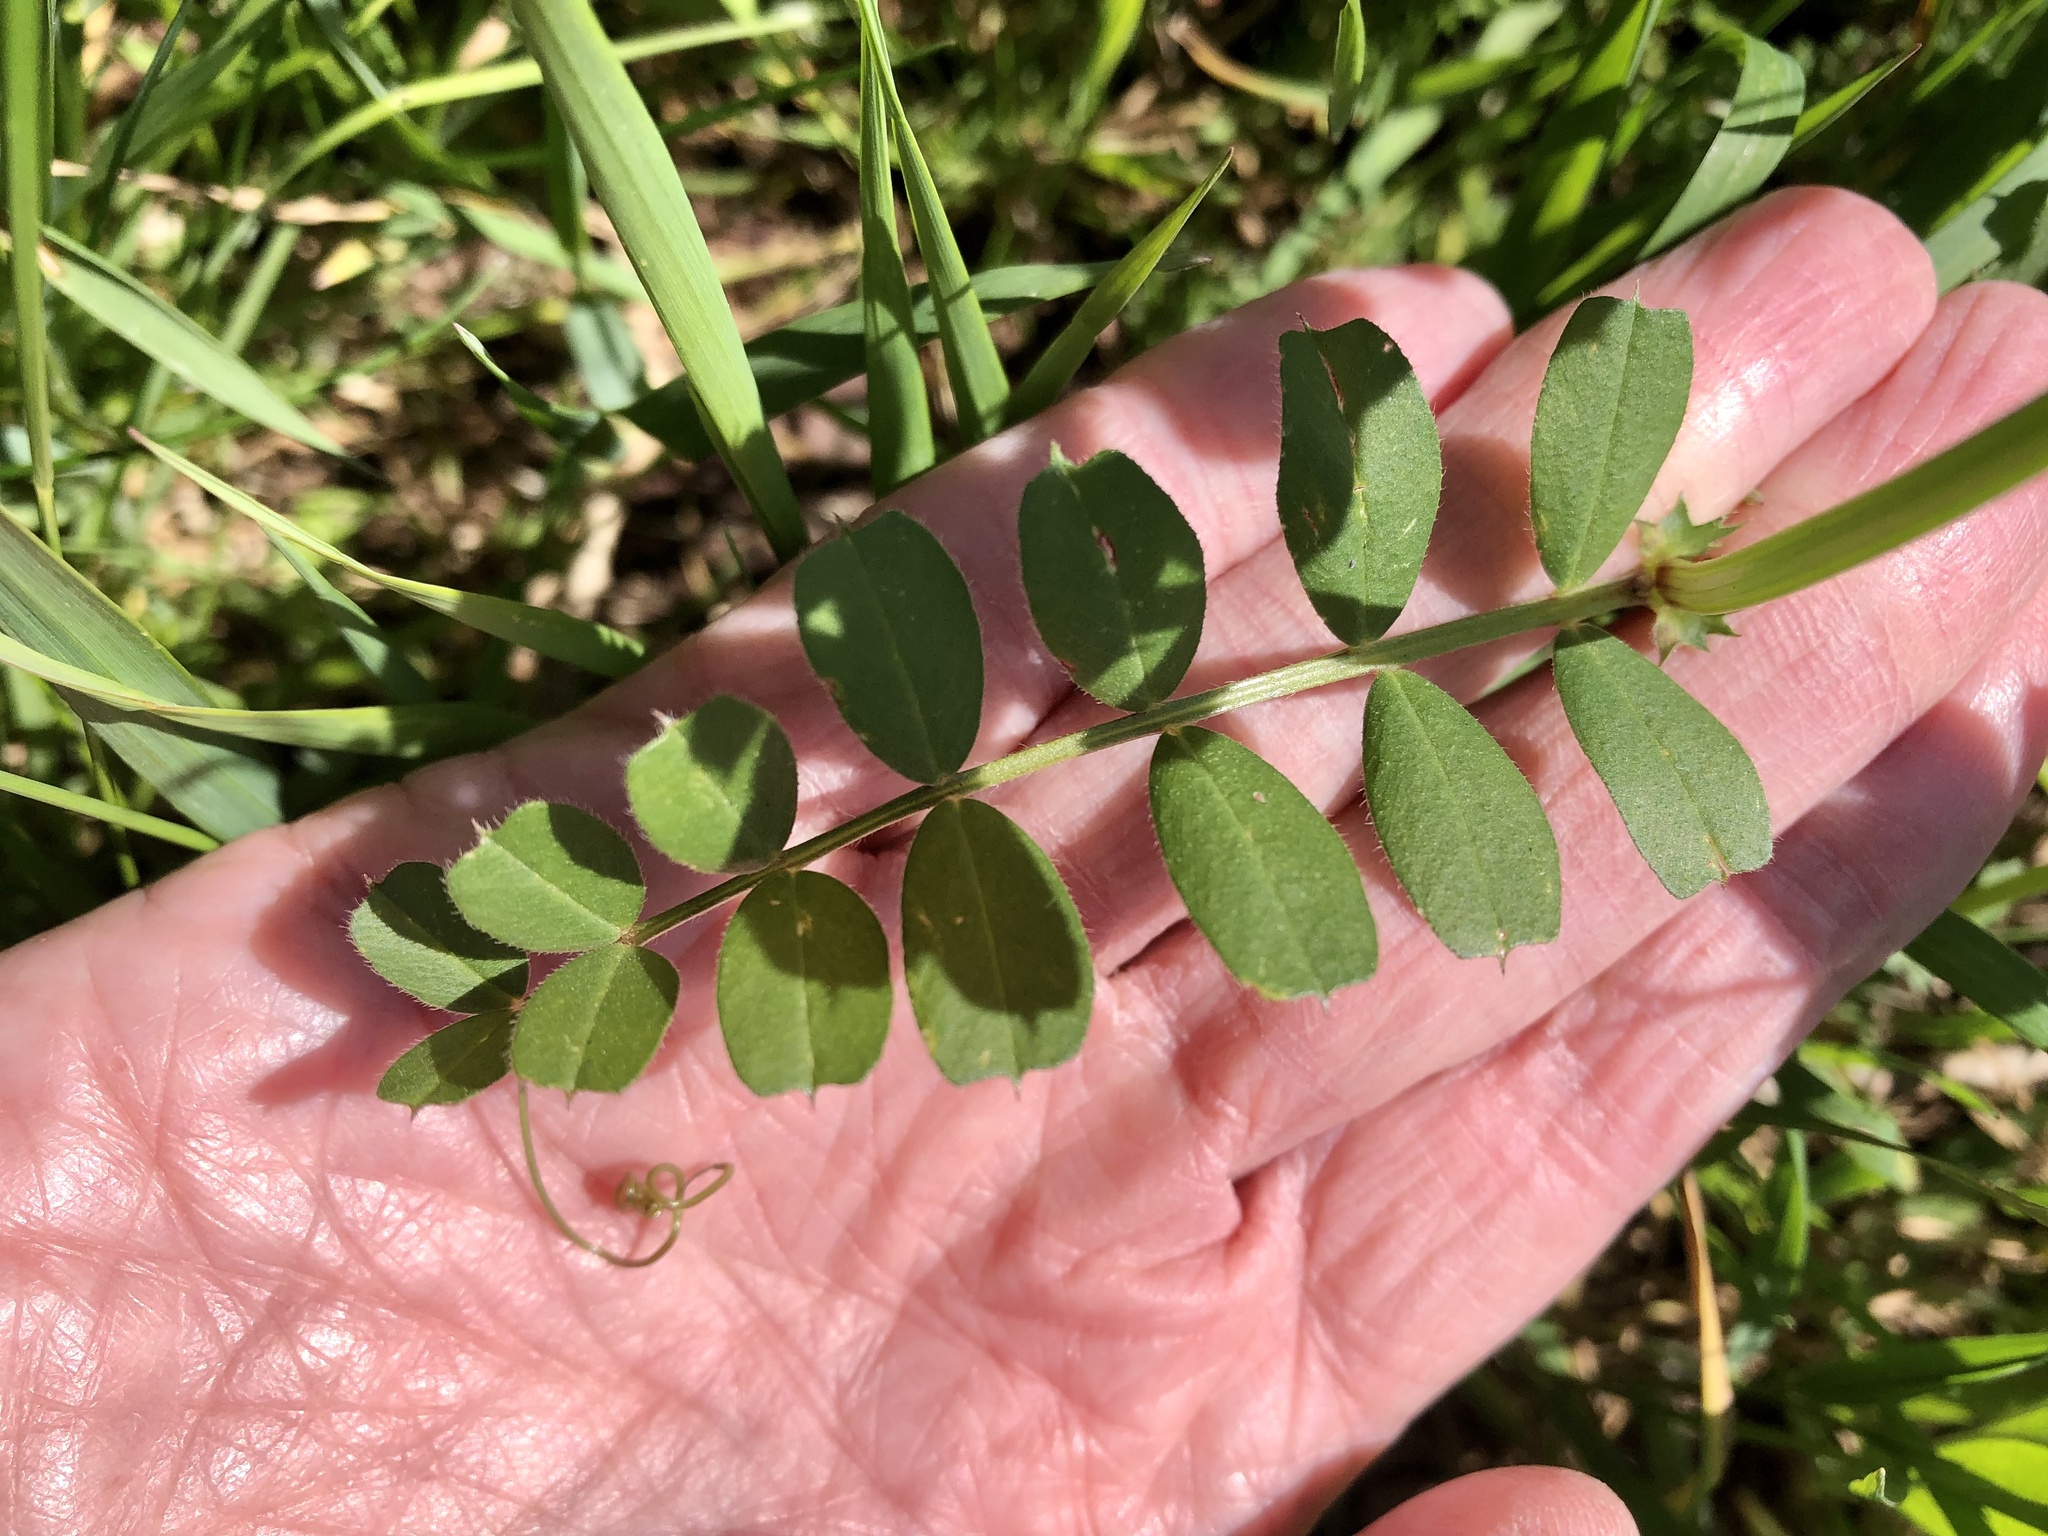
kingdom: Plantae
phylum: Tracheophyta
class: Magnoliopsida
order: Fabales
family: Fabaceae
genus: Vicia
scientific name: Vicia sativa
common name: Garden vetch
